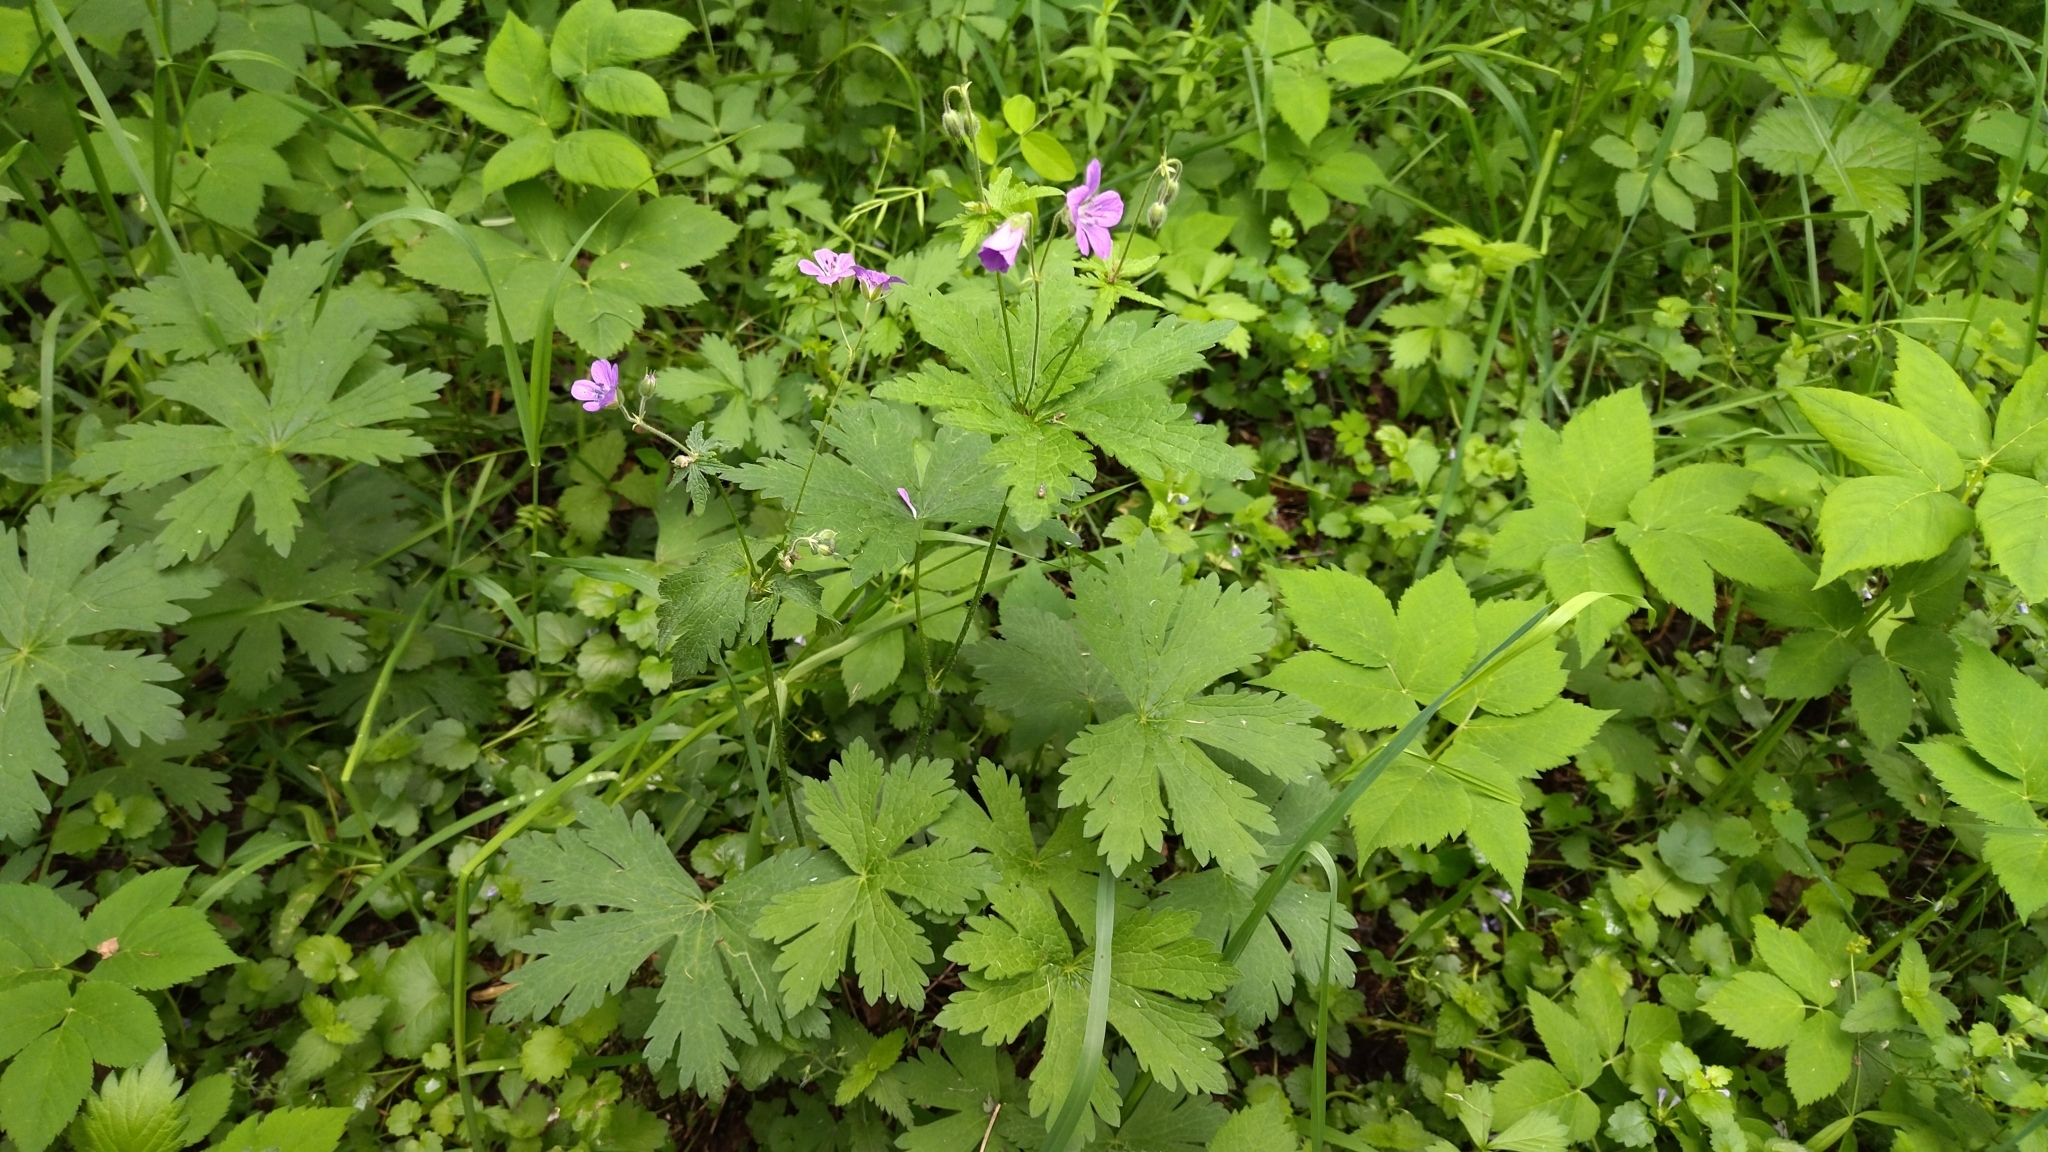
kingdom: Plantae
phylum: Tracheophyta
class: Magnoliopsida
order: Geraniales
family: Geraniaceae
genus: Geranium
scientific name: Geranium sylvaticum
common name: Wood crane's-bill
